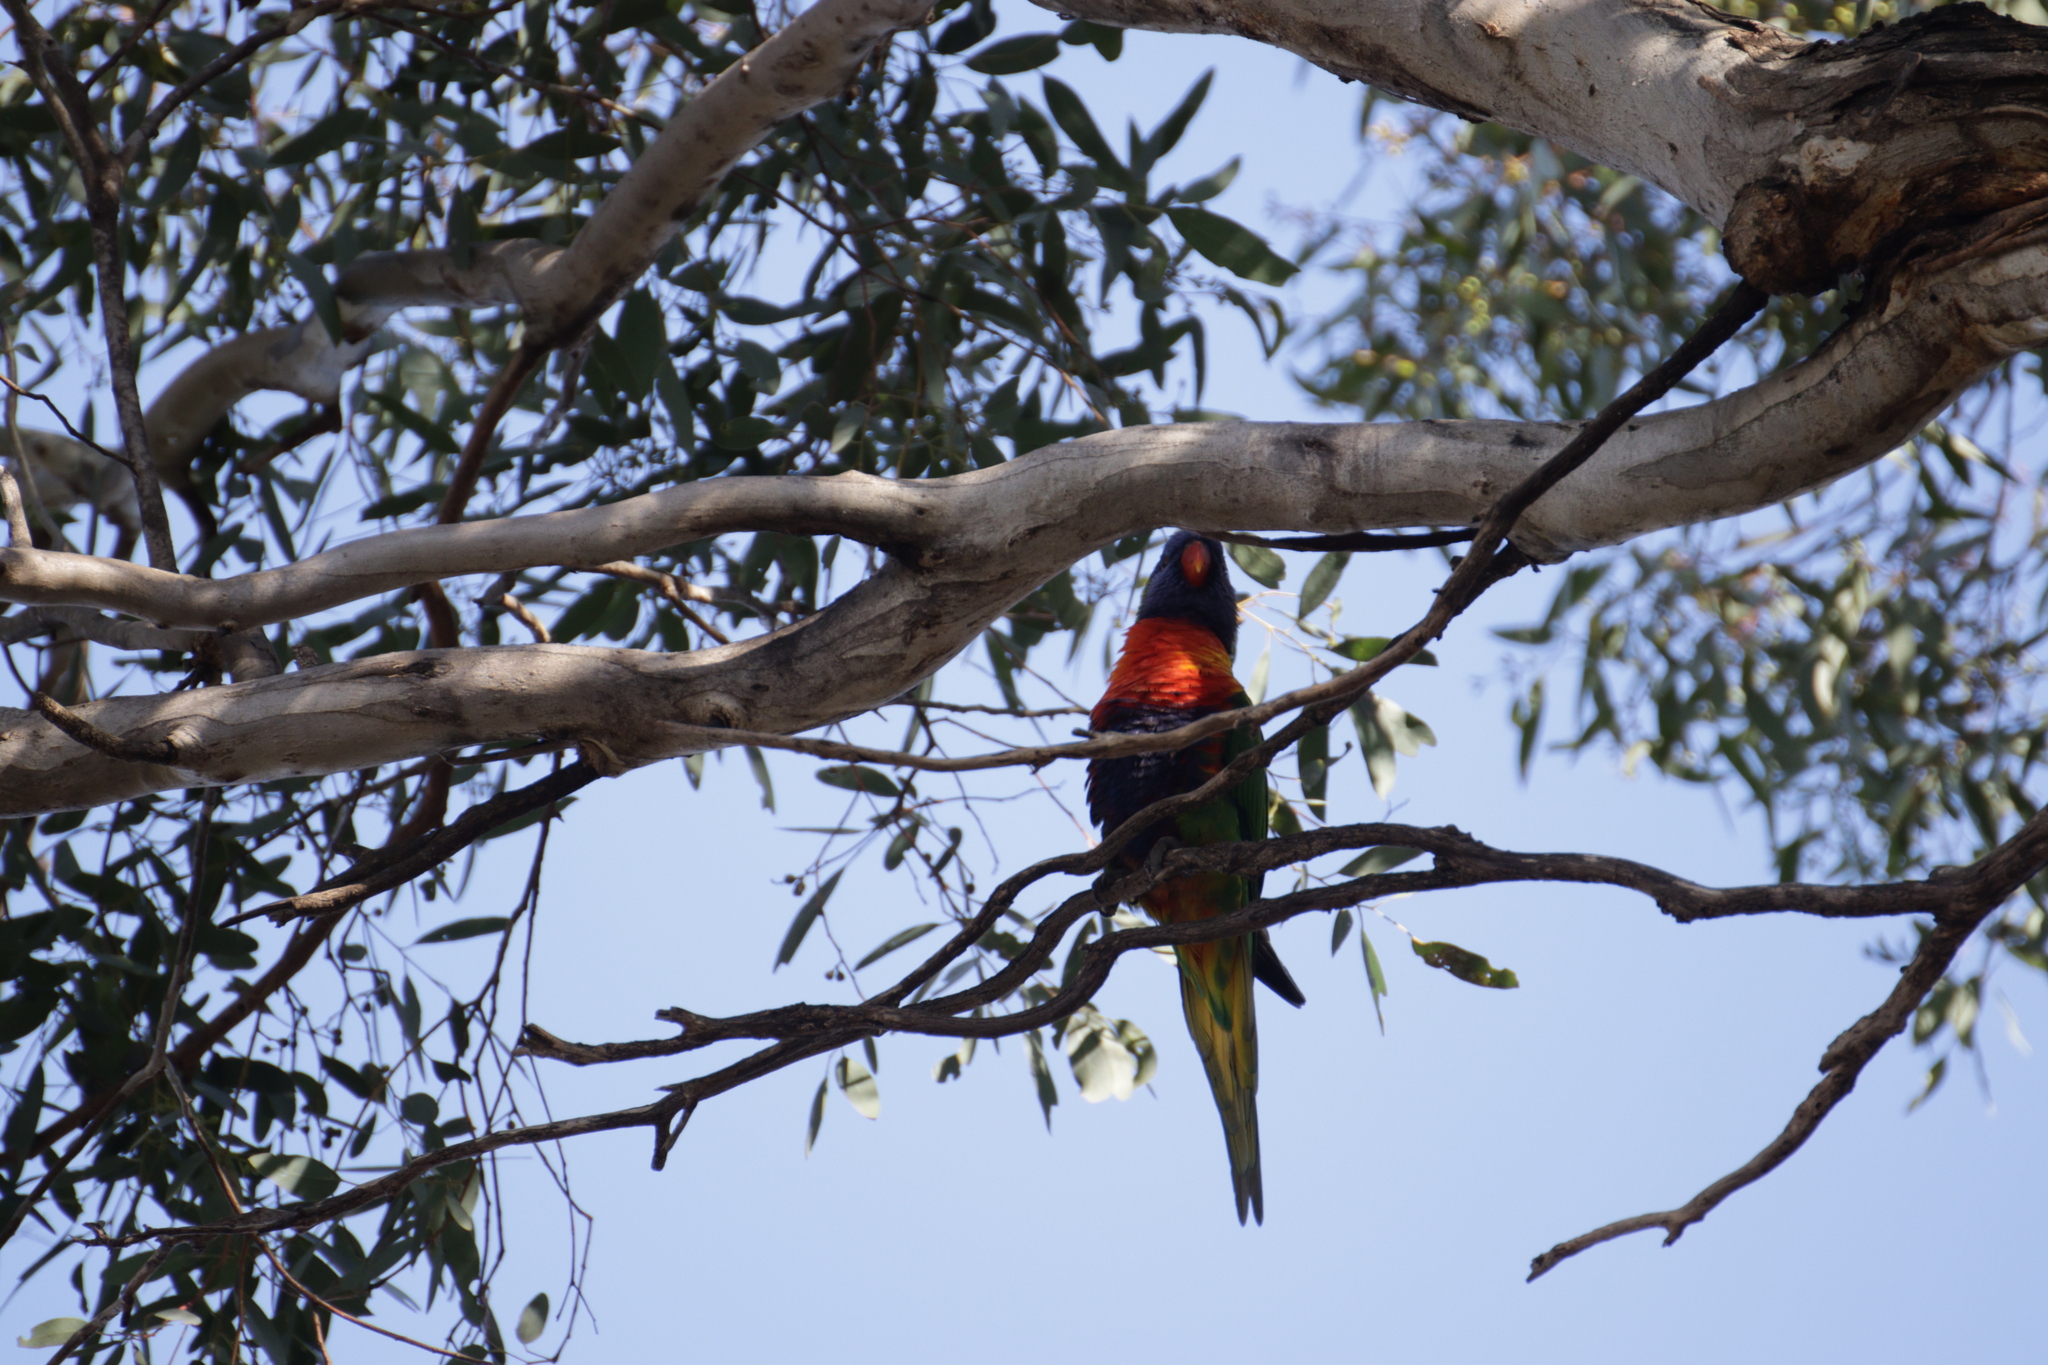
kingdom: Animalia
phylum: Chordata
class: Aves
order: Psittaciformes
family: Psittacidae
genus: Trichoglossus
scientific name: Trichoglossus haematodus
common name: Coconut lorikeet
